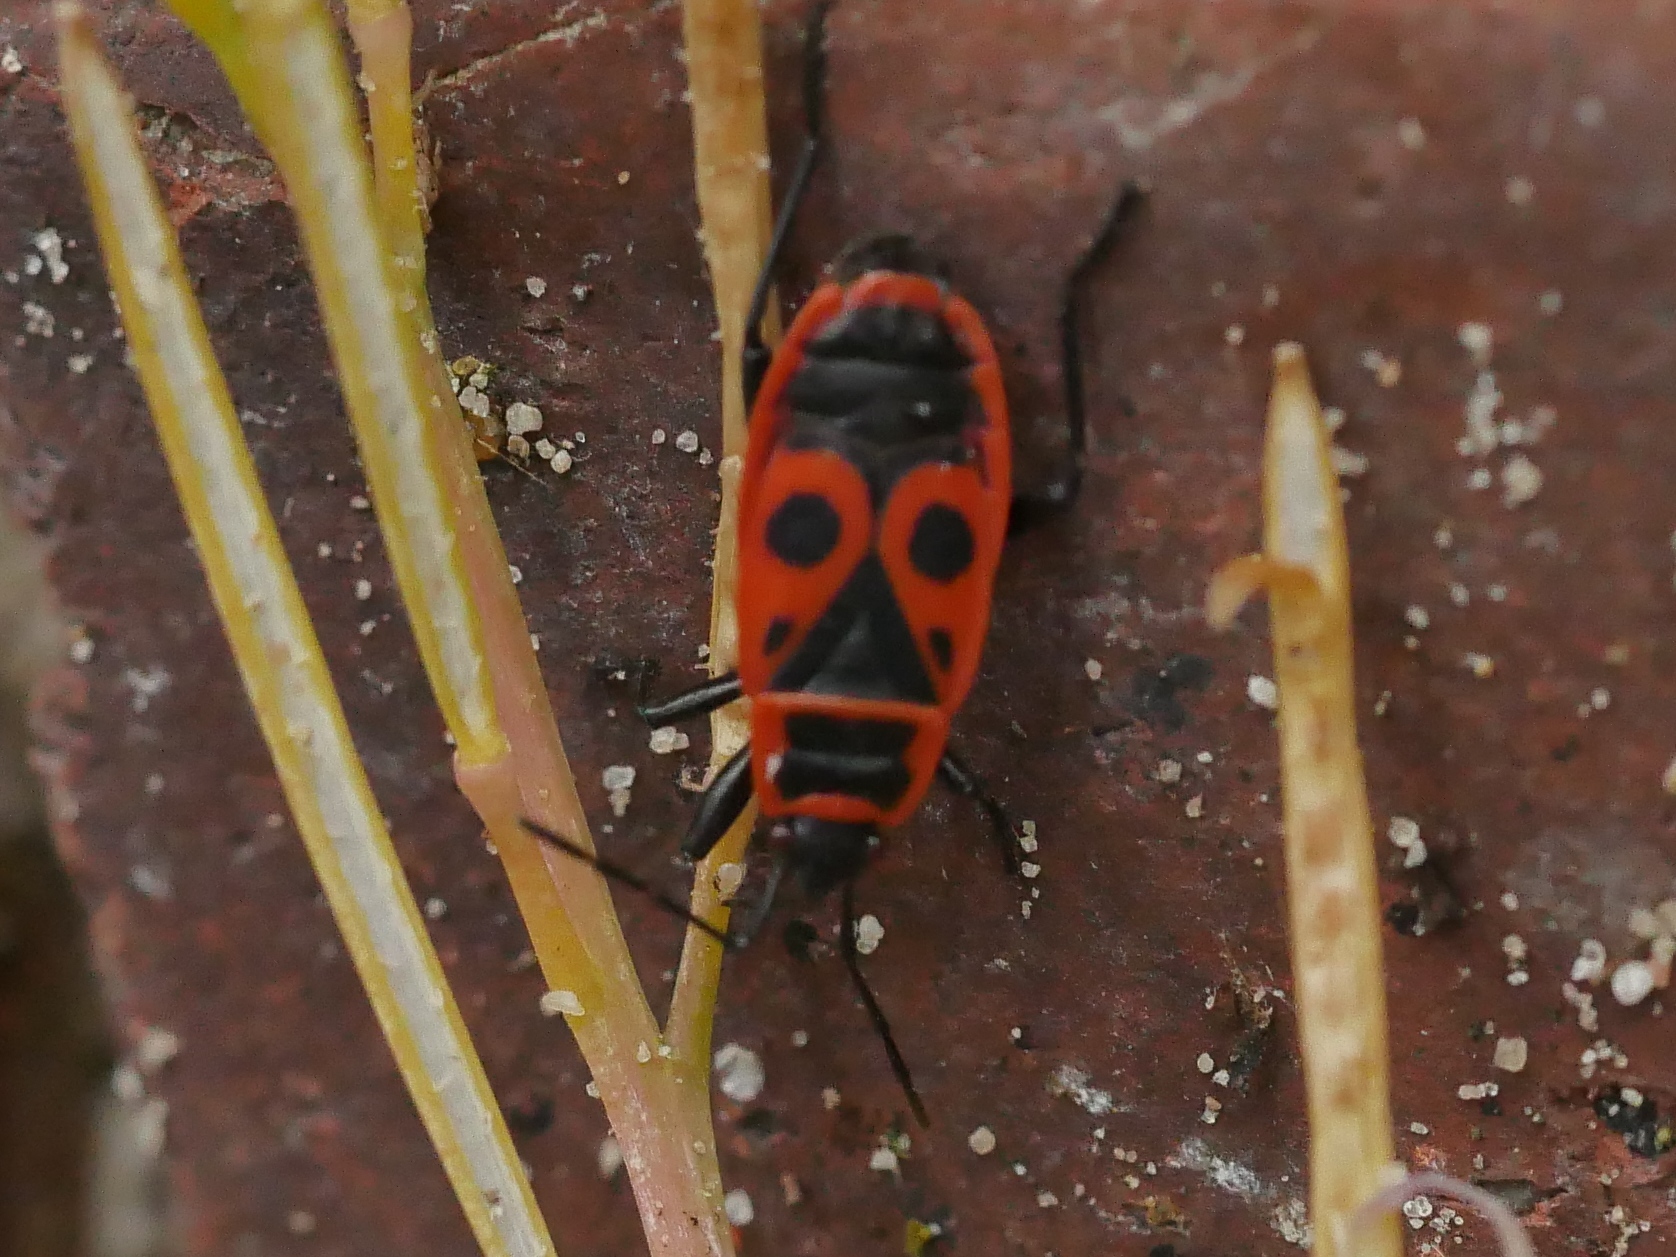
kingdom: Animalia
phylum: Arthropoda
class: Insecta
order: Hemiptera
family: Pyrrhocoridae
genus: Pyrrhocoris
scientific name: Pyrrhocoris apterus
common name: Firebug
